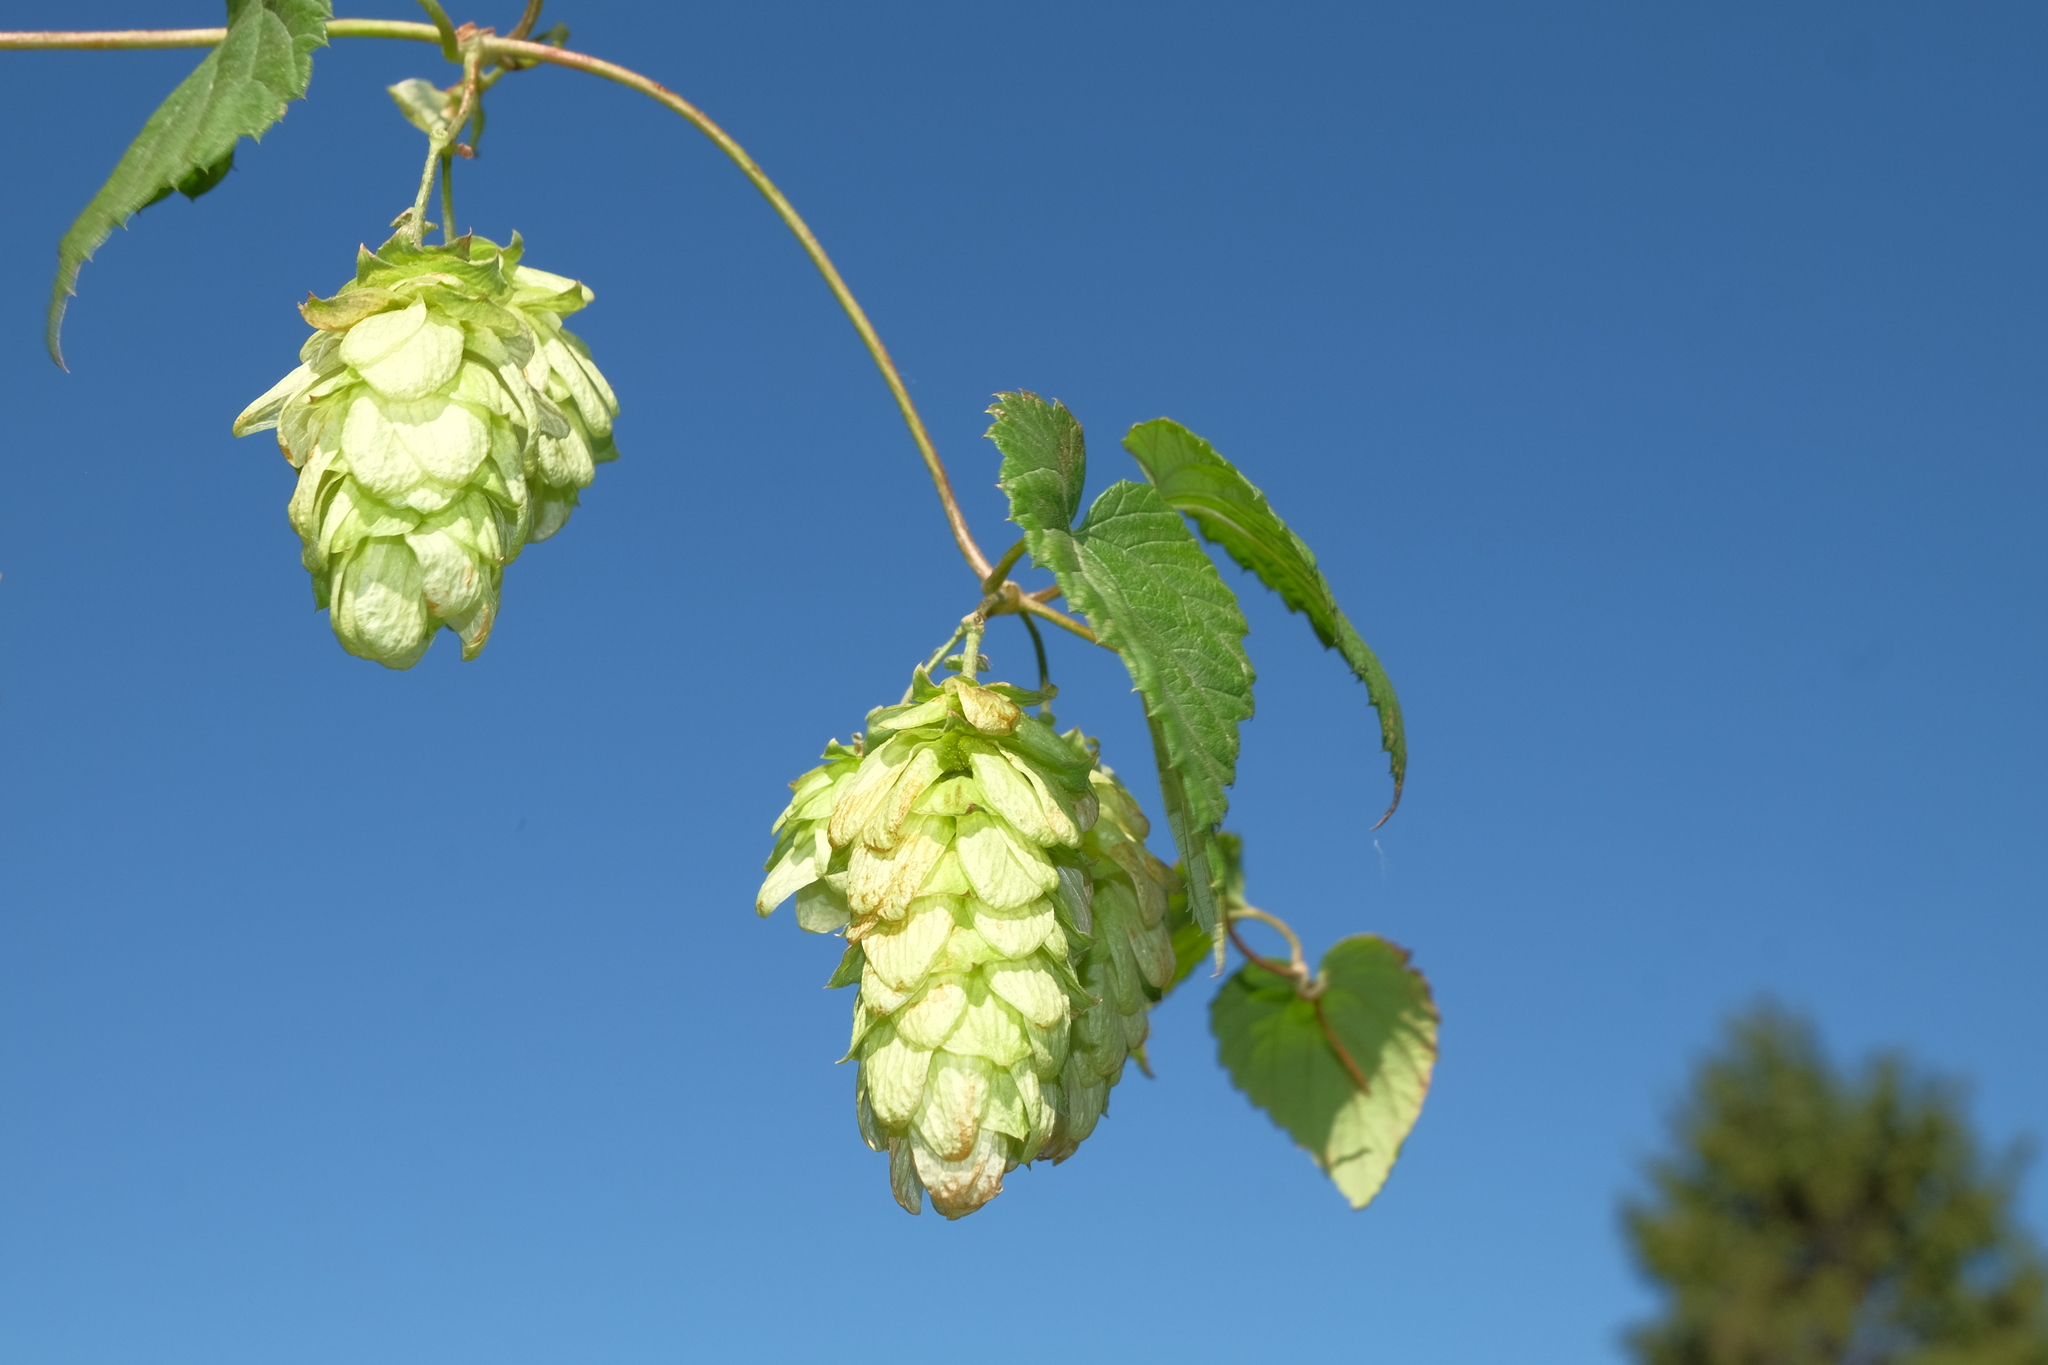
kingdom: Plantae
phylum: Tracheophyta
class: Magnoliopsida
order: Rosales
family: Cannabaceae
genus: Humulus
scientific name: Humulus lupulus
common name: Hop
